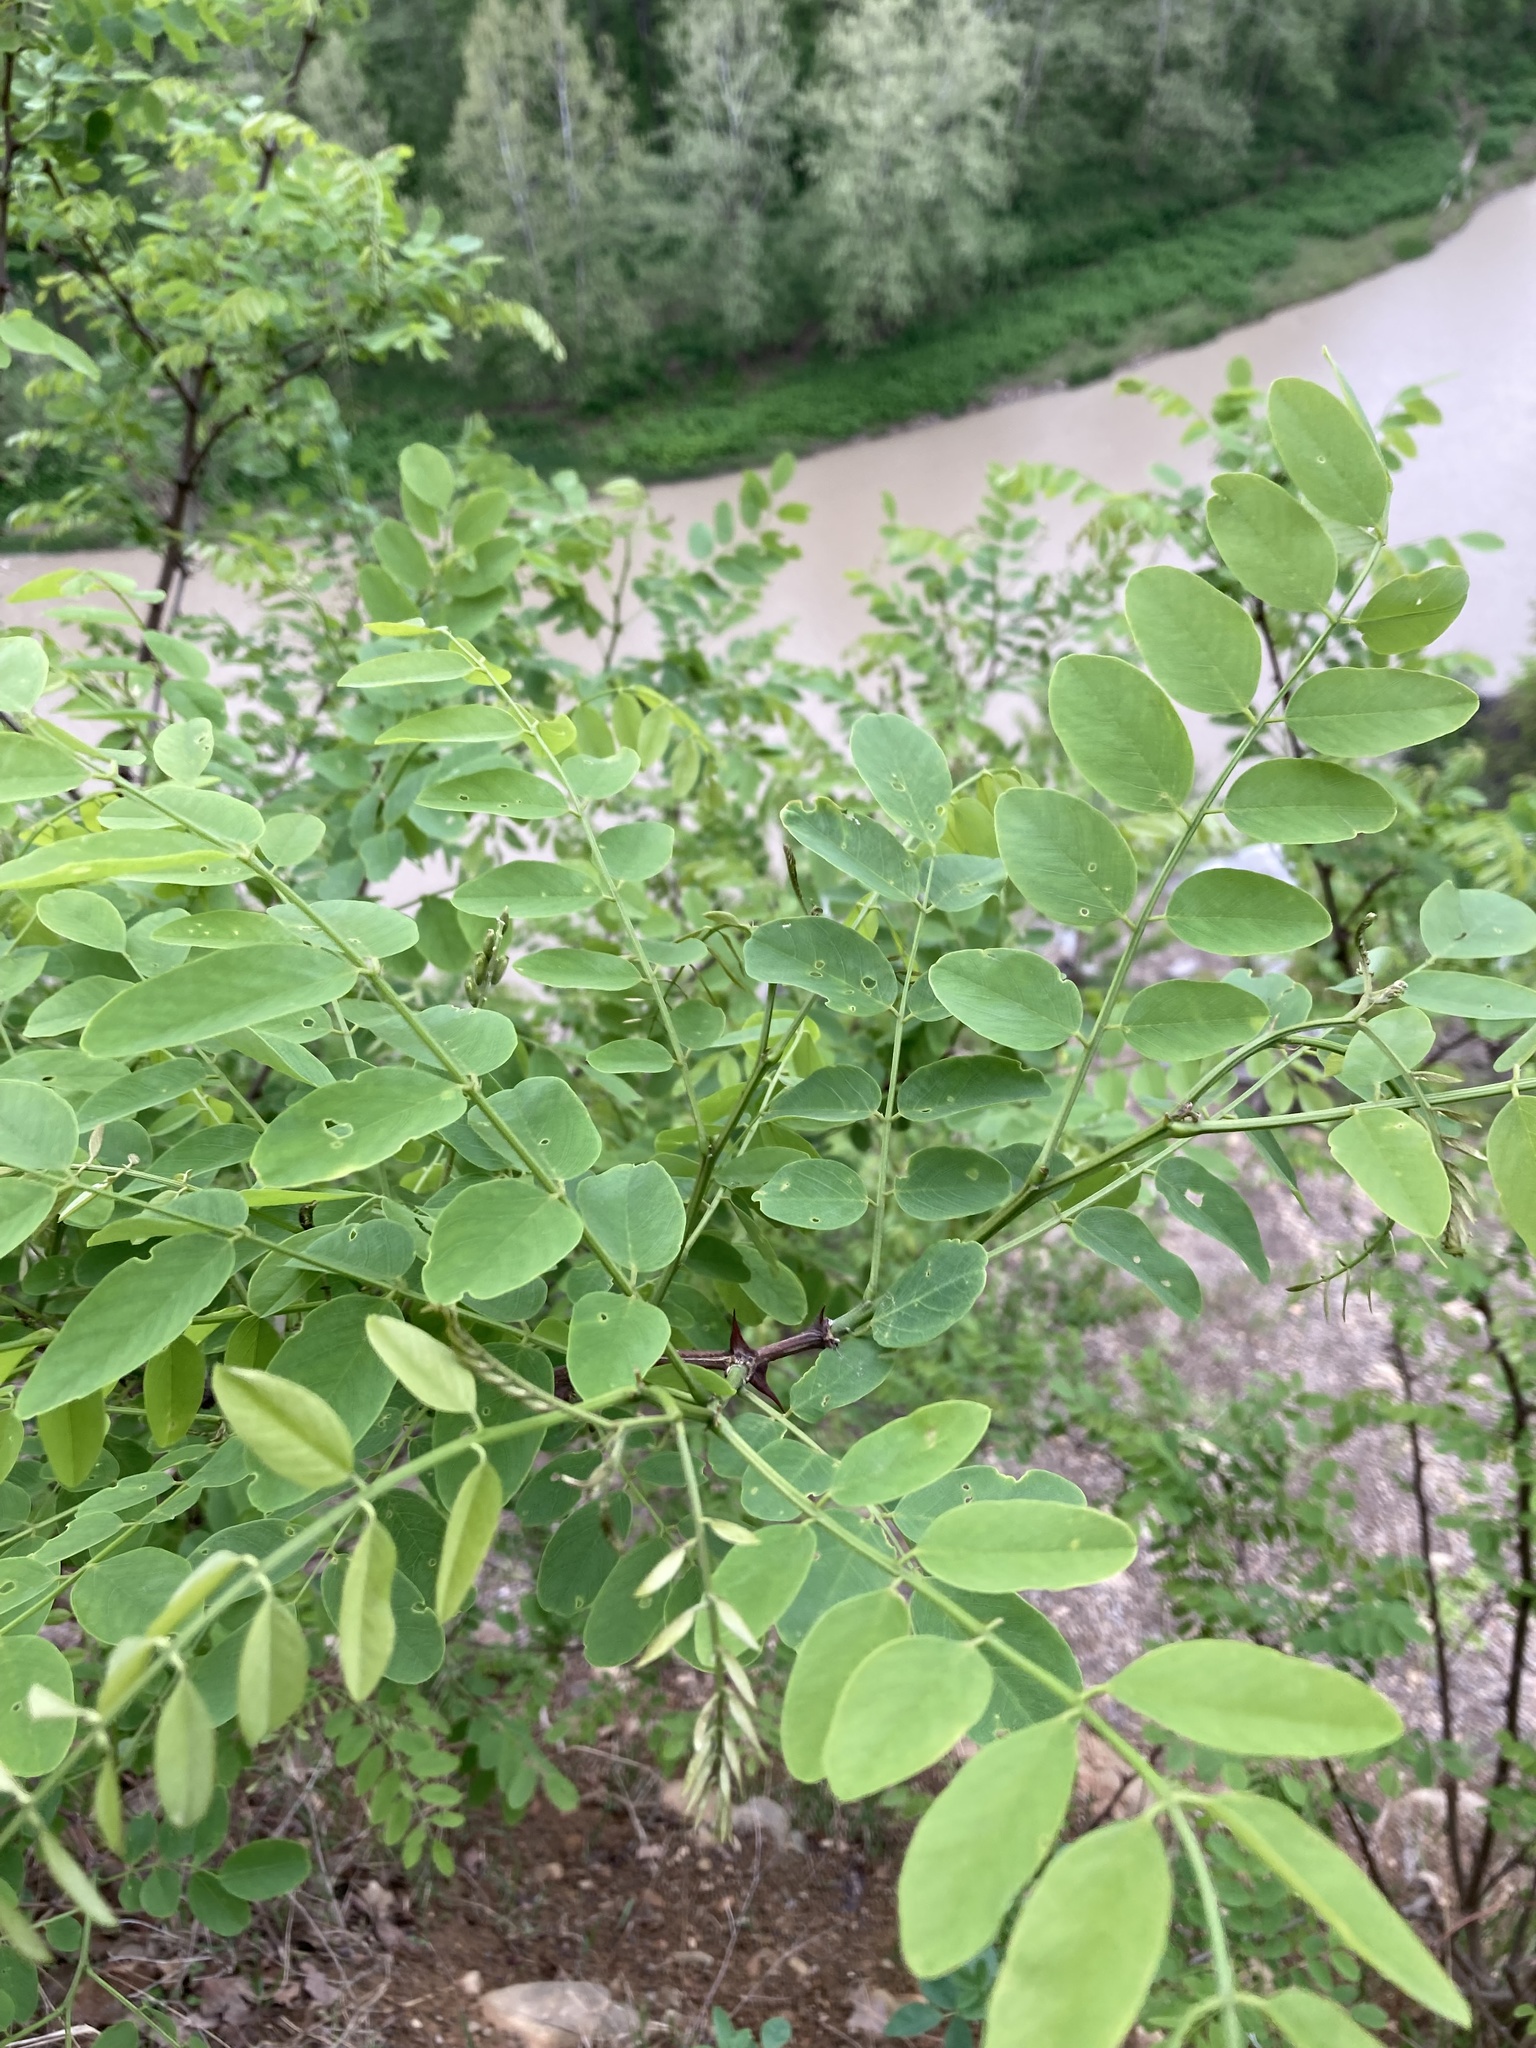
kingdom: Plantae
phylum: Tracheophyta
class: Magnoliopsida
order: Fabales
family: Fabaceae
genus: Robinia
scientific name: Robinia pseudoacacia
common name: Black locust
